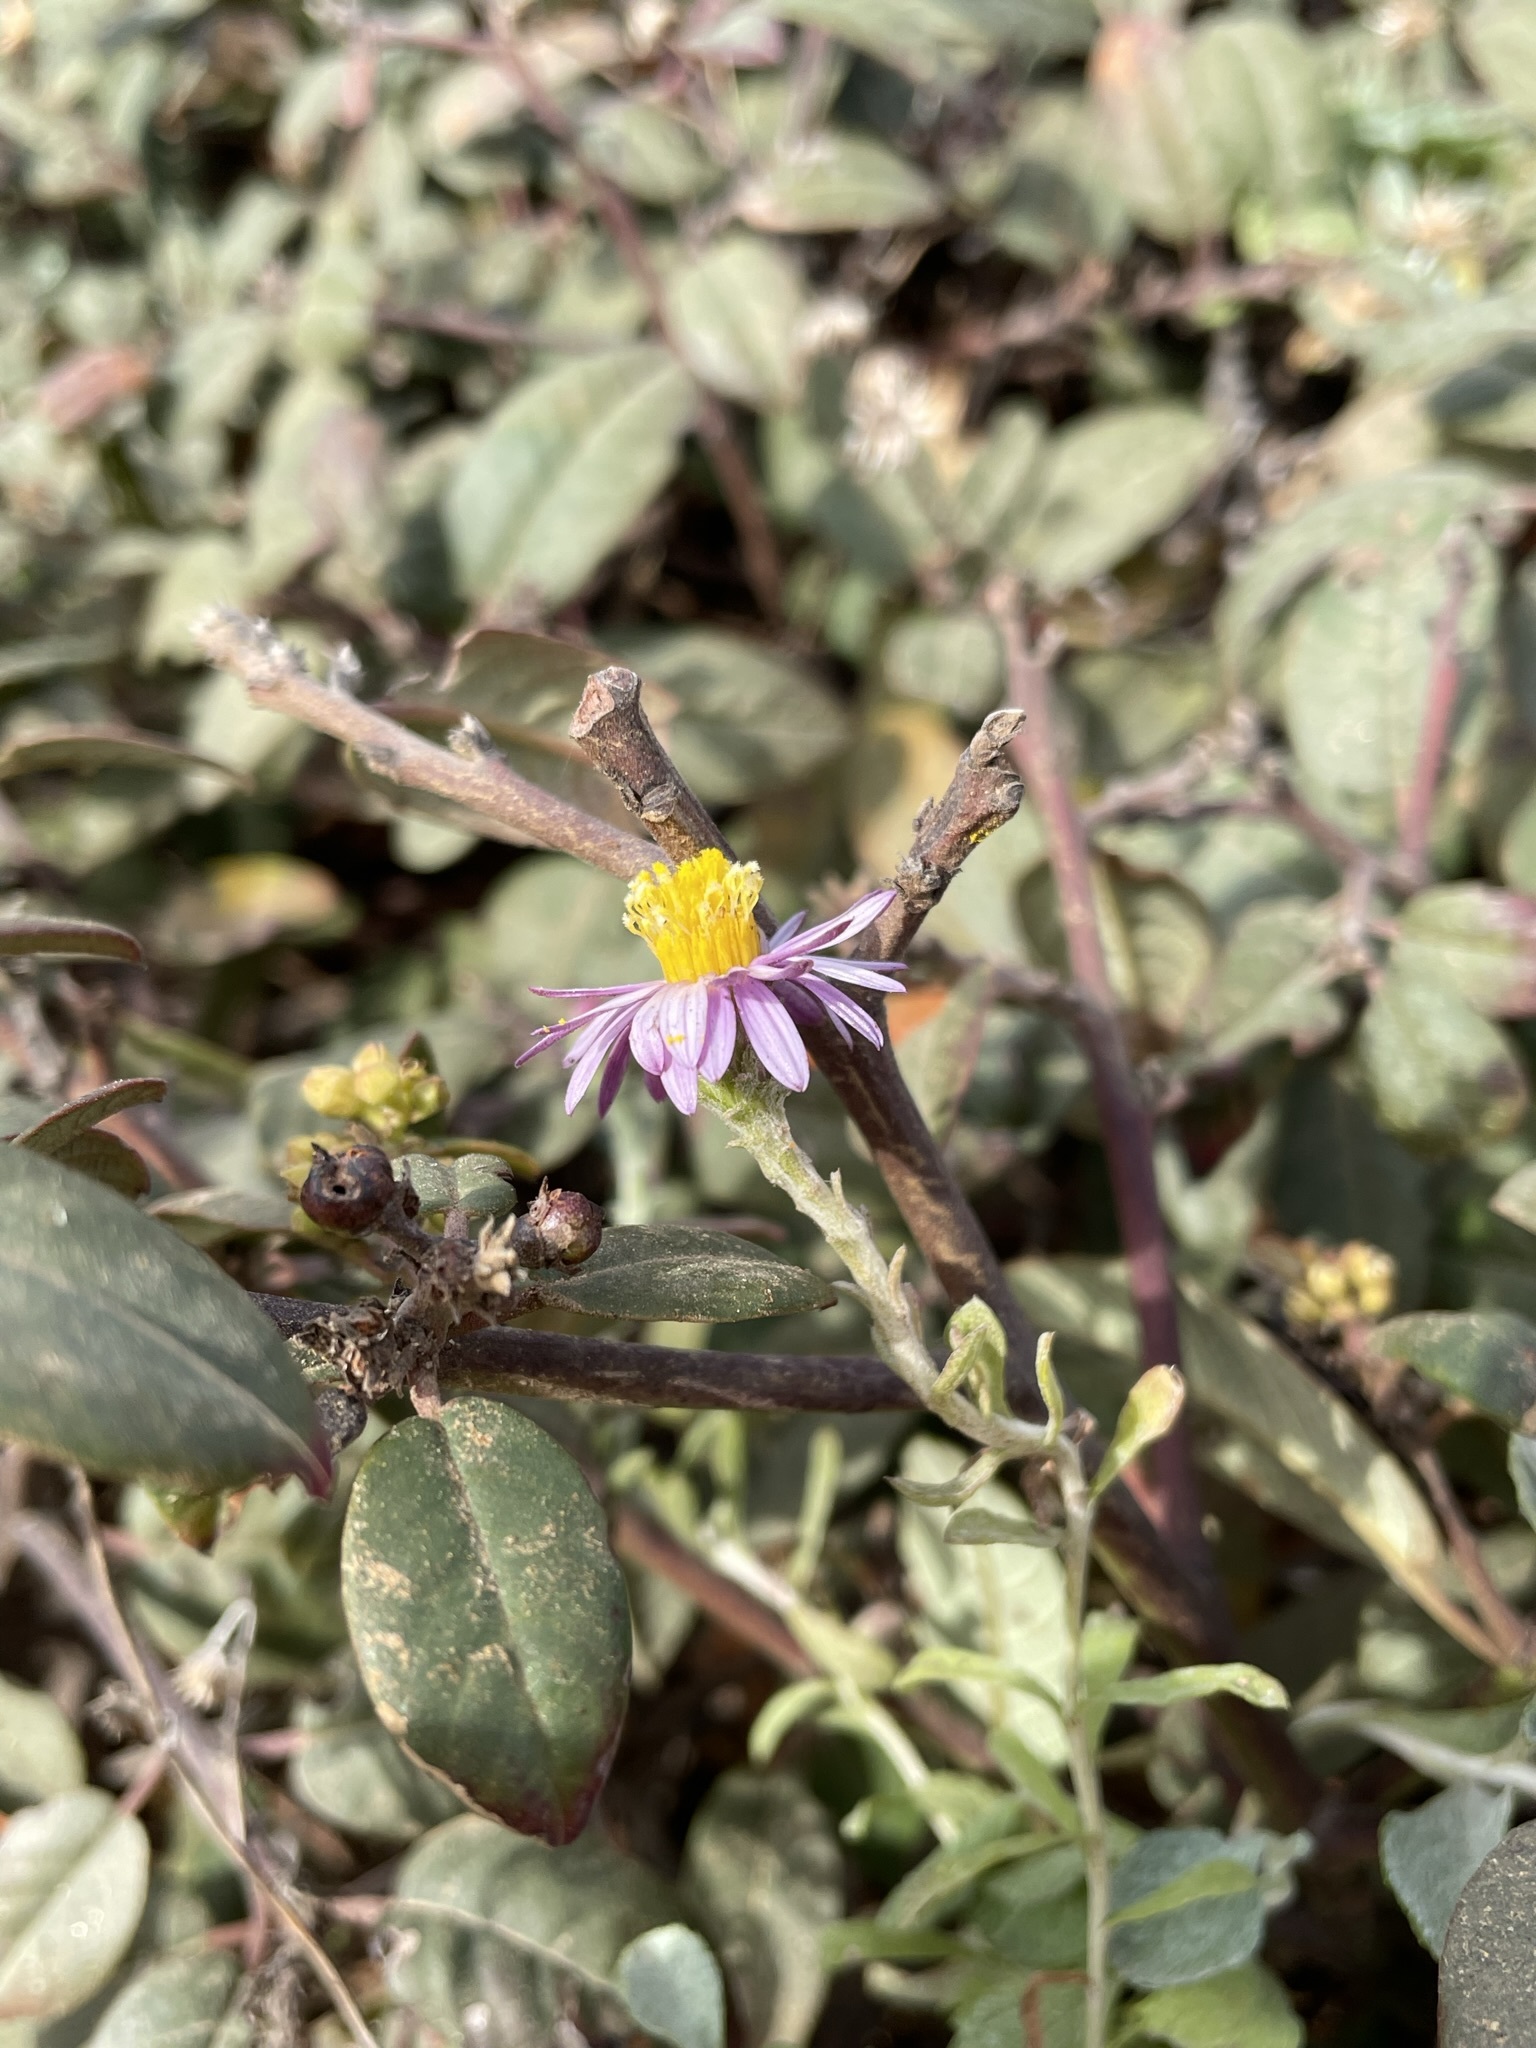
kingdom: Plantae
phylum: Tracheophyta
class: Magnoliopsida
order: Asterales
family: Asteraceae
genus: Corethrogyne
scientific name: Corethrogyne filaginifolia
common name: Sand-aster
